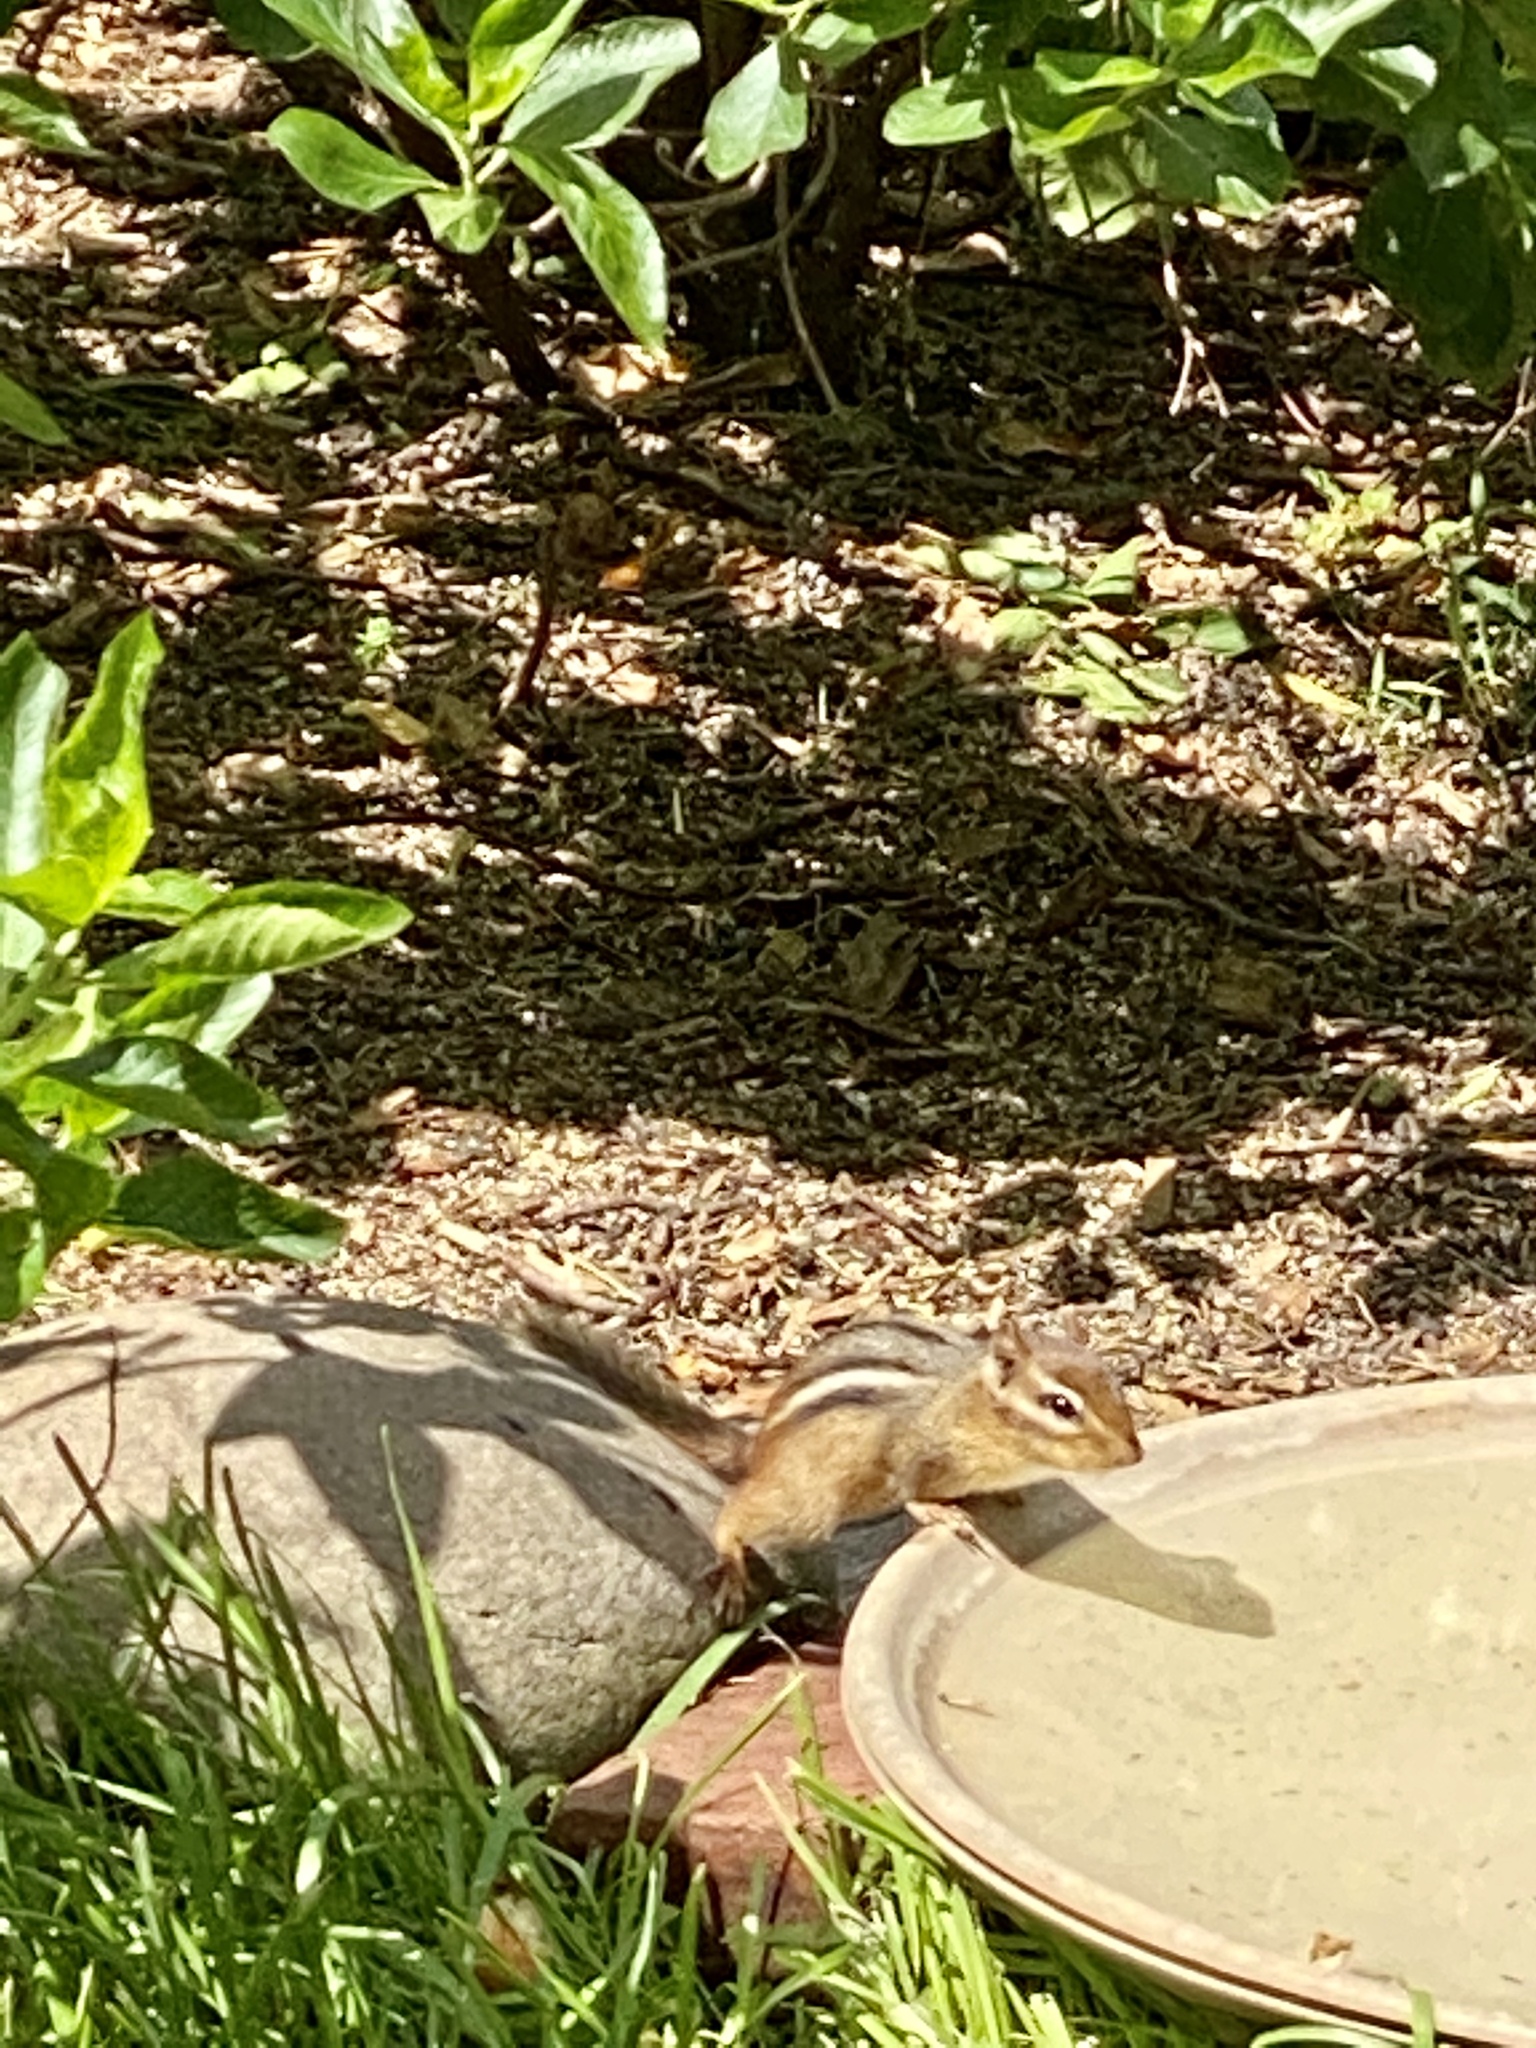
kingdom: Animalia
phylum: Chordata
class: Mammalia
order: Rodentia
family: Sciuridae
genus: Tamias
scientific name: Tamias striatus
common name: Eastern chipmunk
